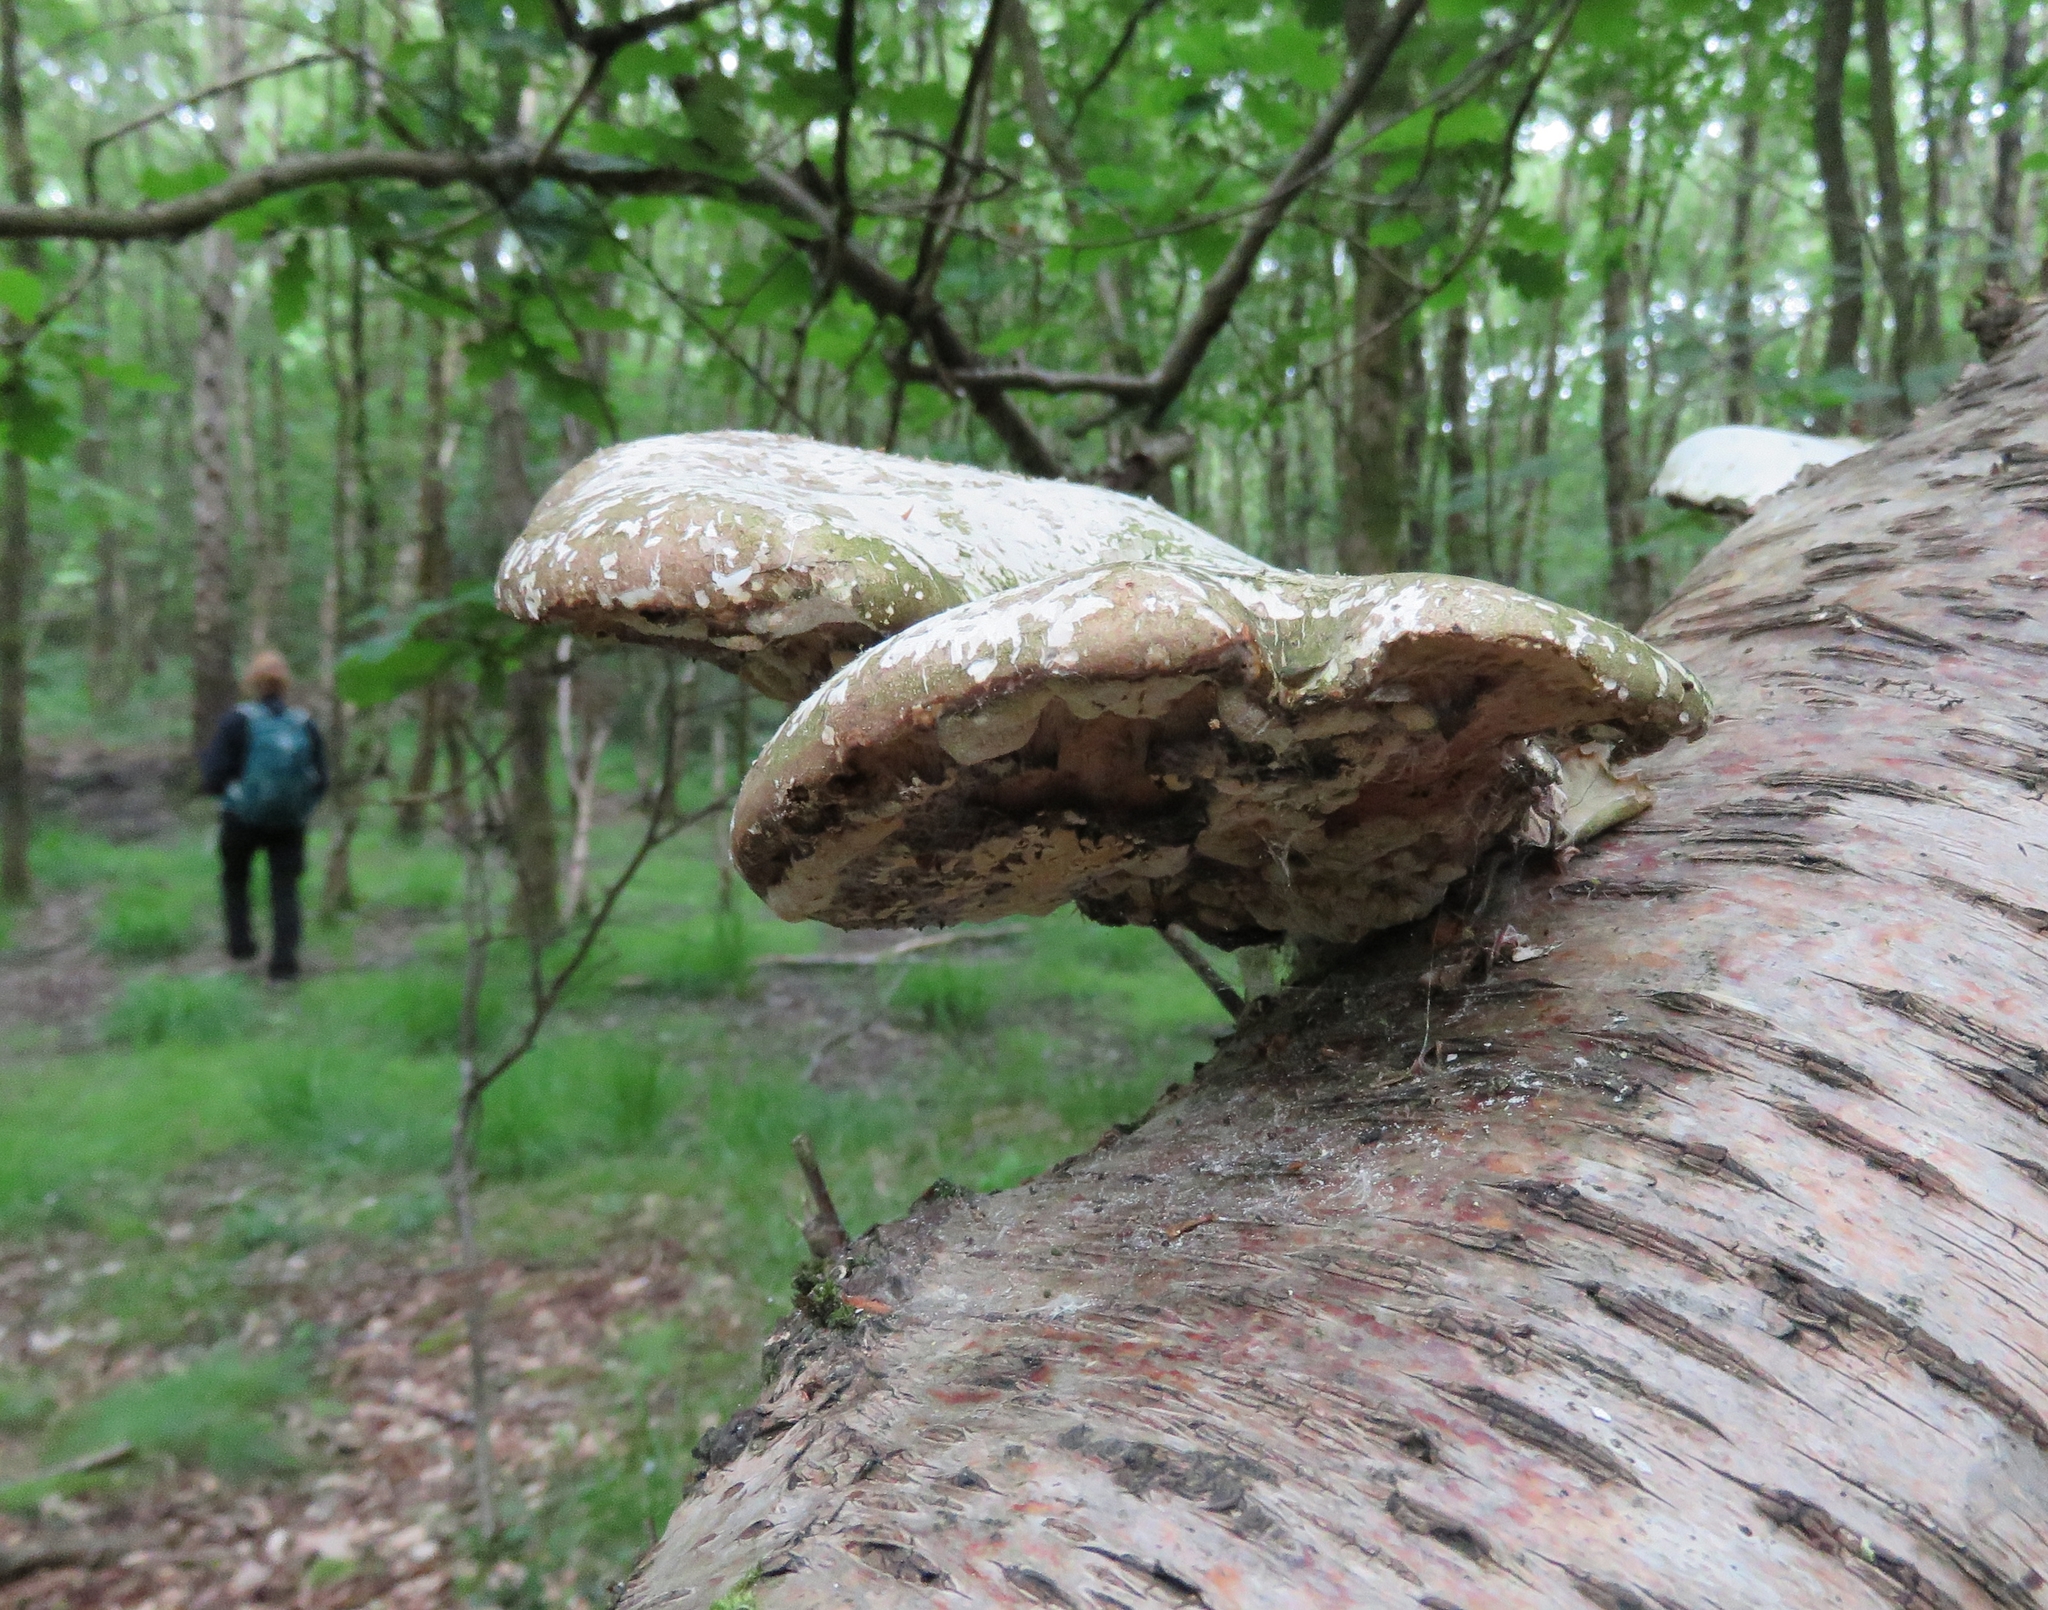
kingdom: Fungi
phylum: Basidiomycota
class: Agaricomycetes
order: Polyporales
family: Fomitopsidaceae
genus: Fomitopsis
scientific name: Fomitopsis betulina
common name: Birch polypore
